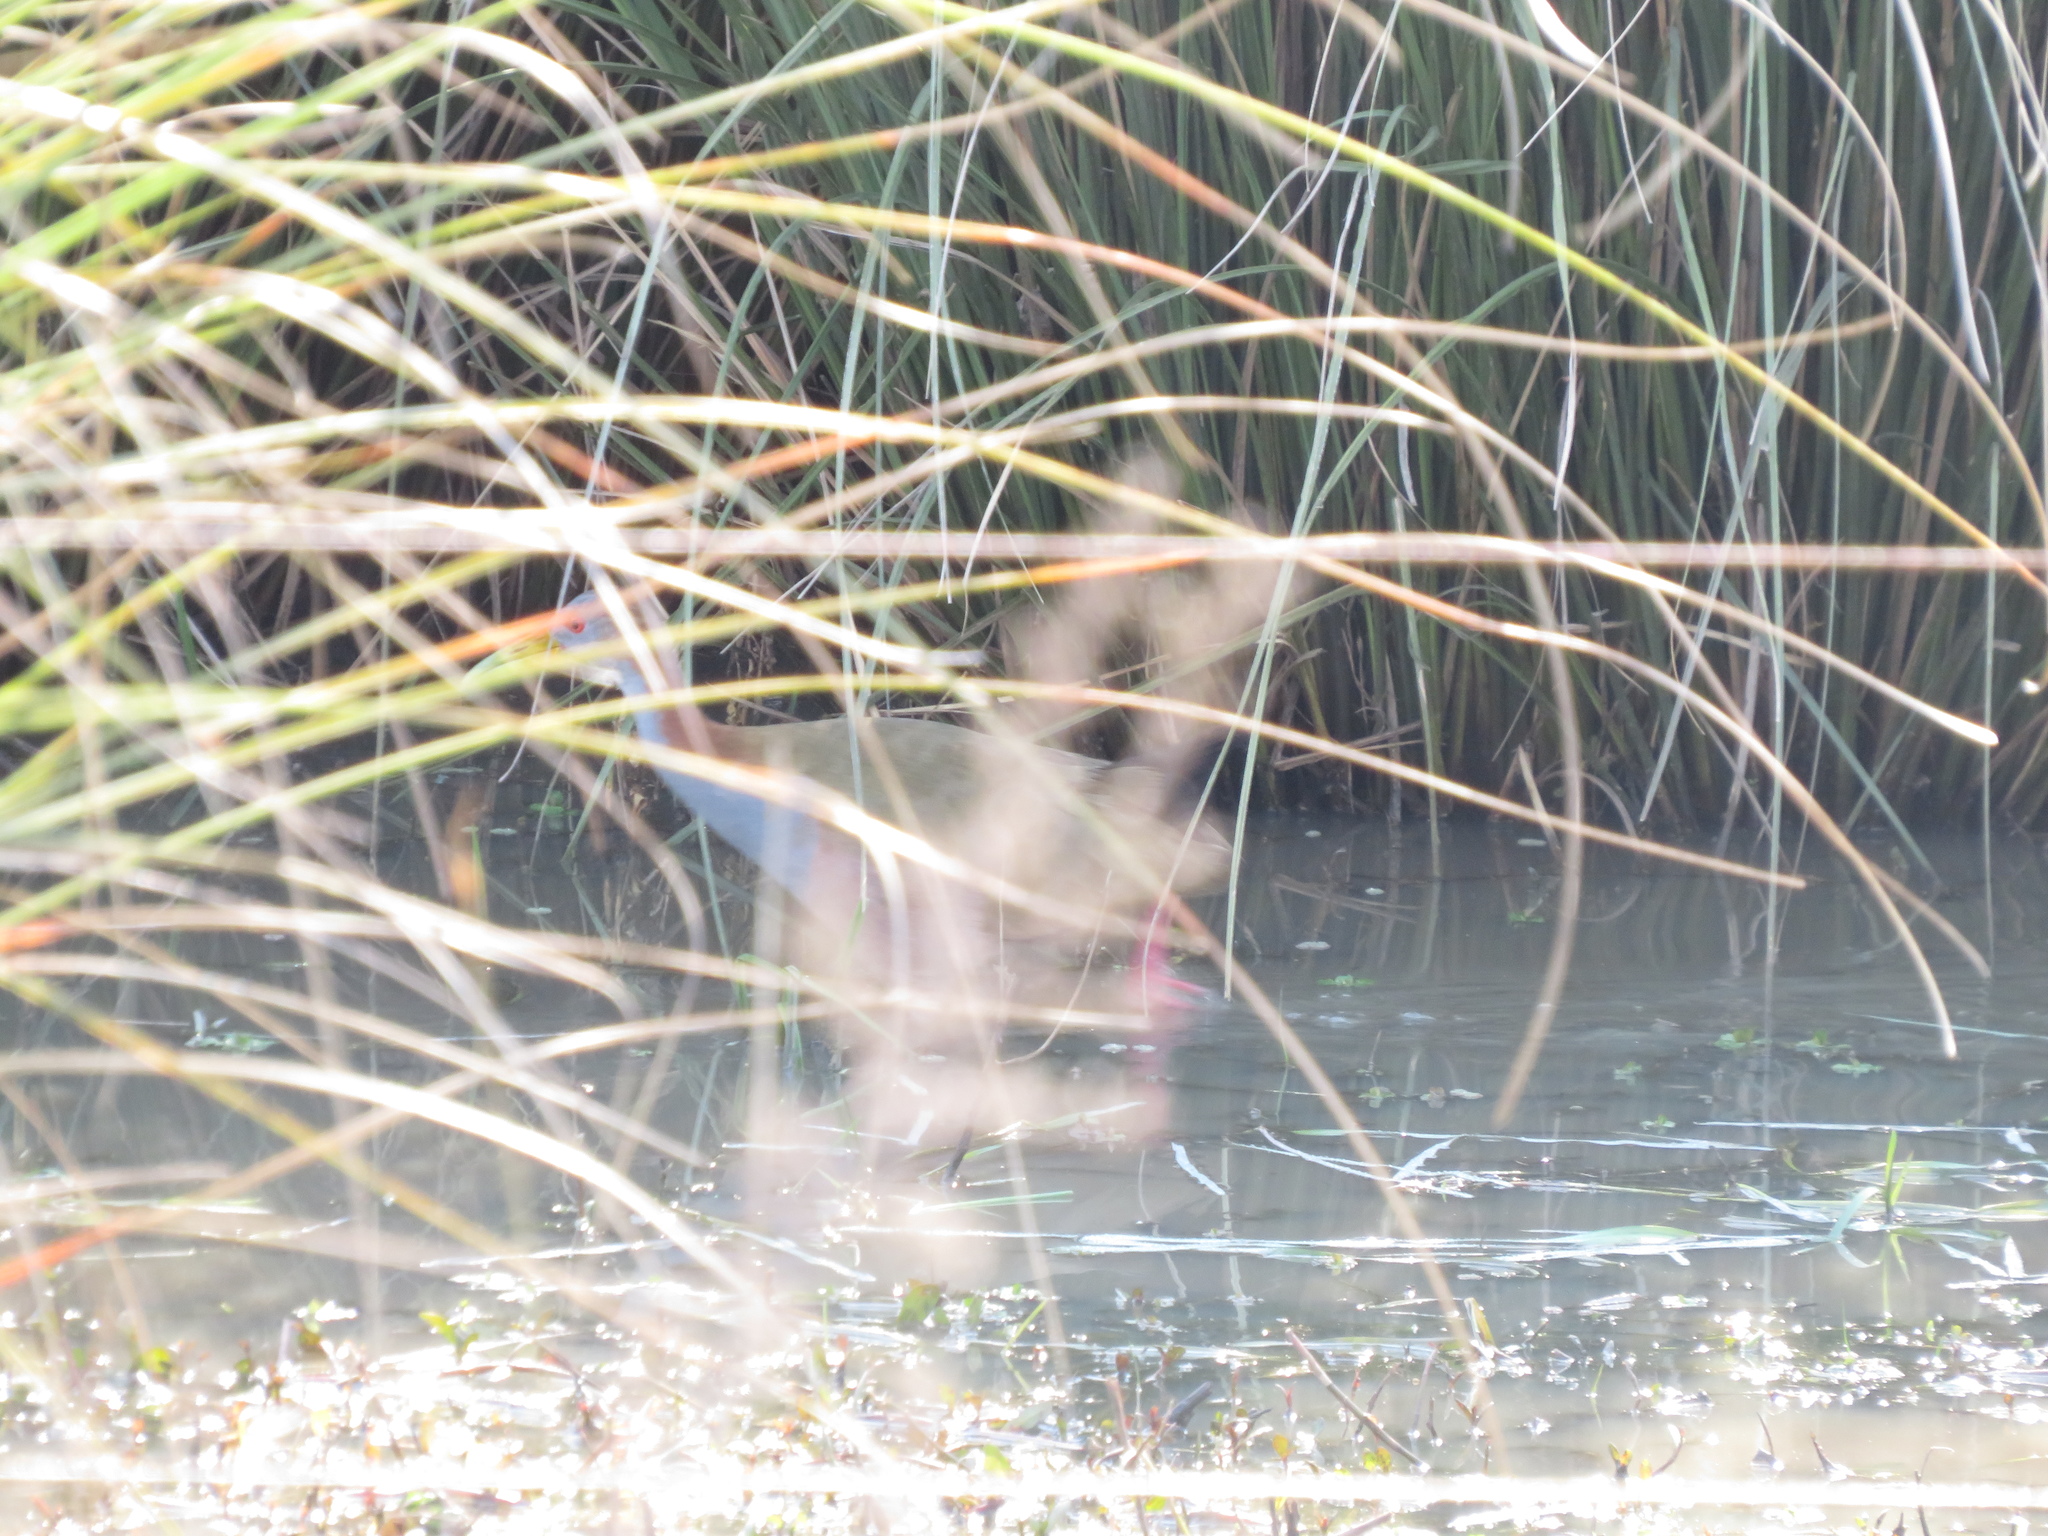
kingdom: Animalia
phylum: Chordata
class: Aves
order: Gruiformes
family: Rallidae
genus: Aramides
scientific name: Aramides ypecaha
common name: Giant wood rail
